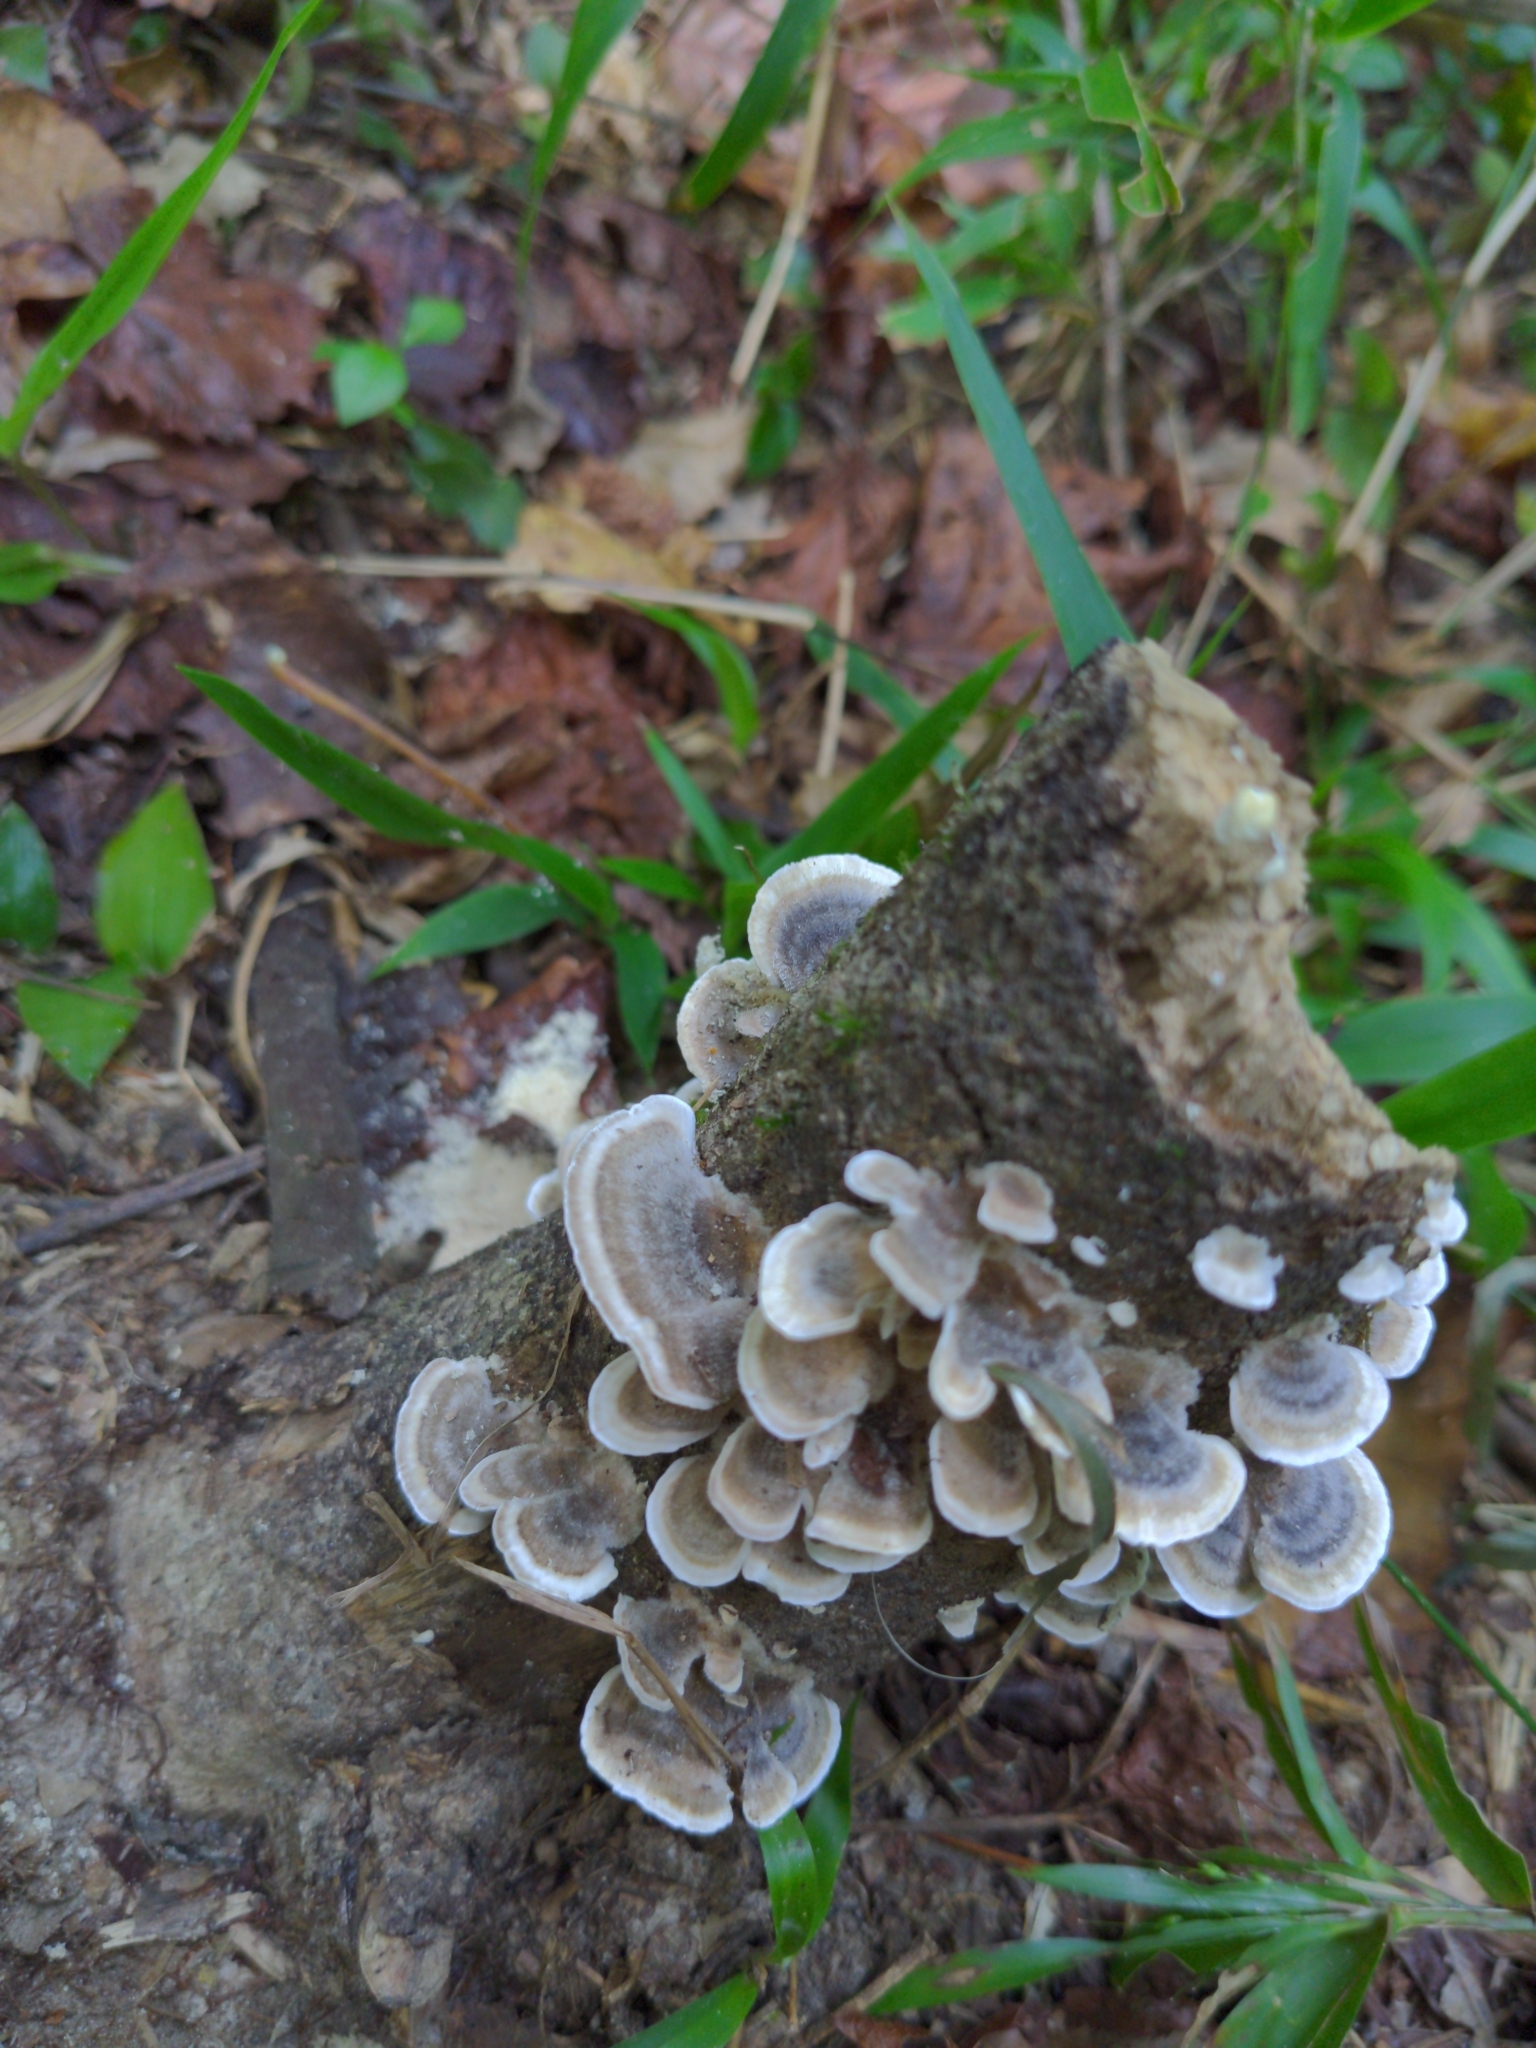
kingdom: Fungi
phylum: Basidiomycota
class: Agaricomycetes
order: Polyporales
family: Polyporaceae
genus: Trametes
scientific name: Trametes versicolor
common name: Turkeytail
